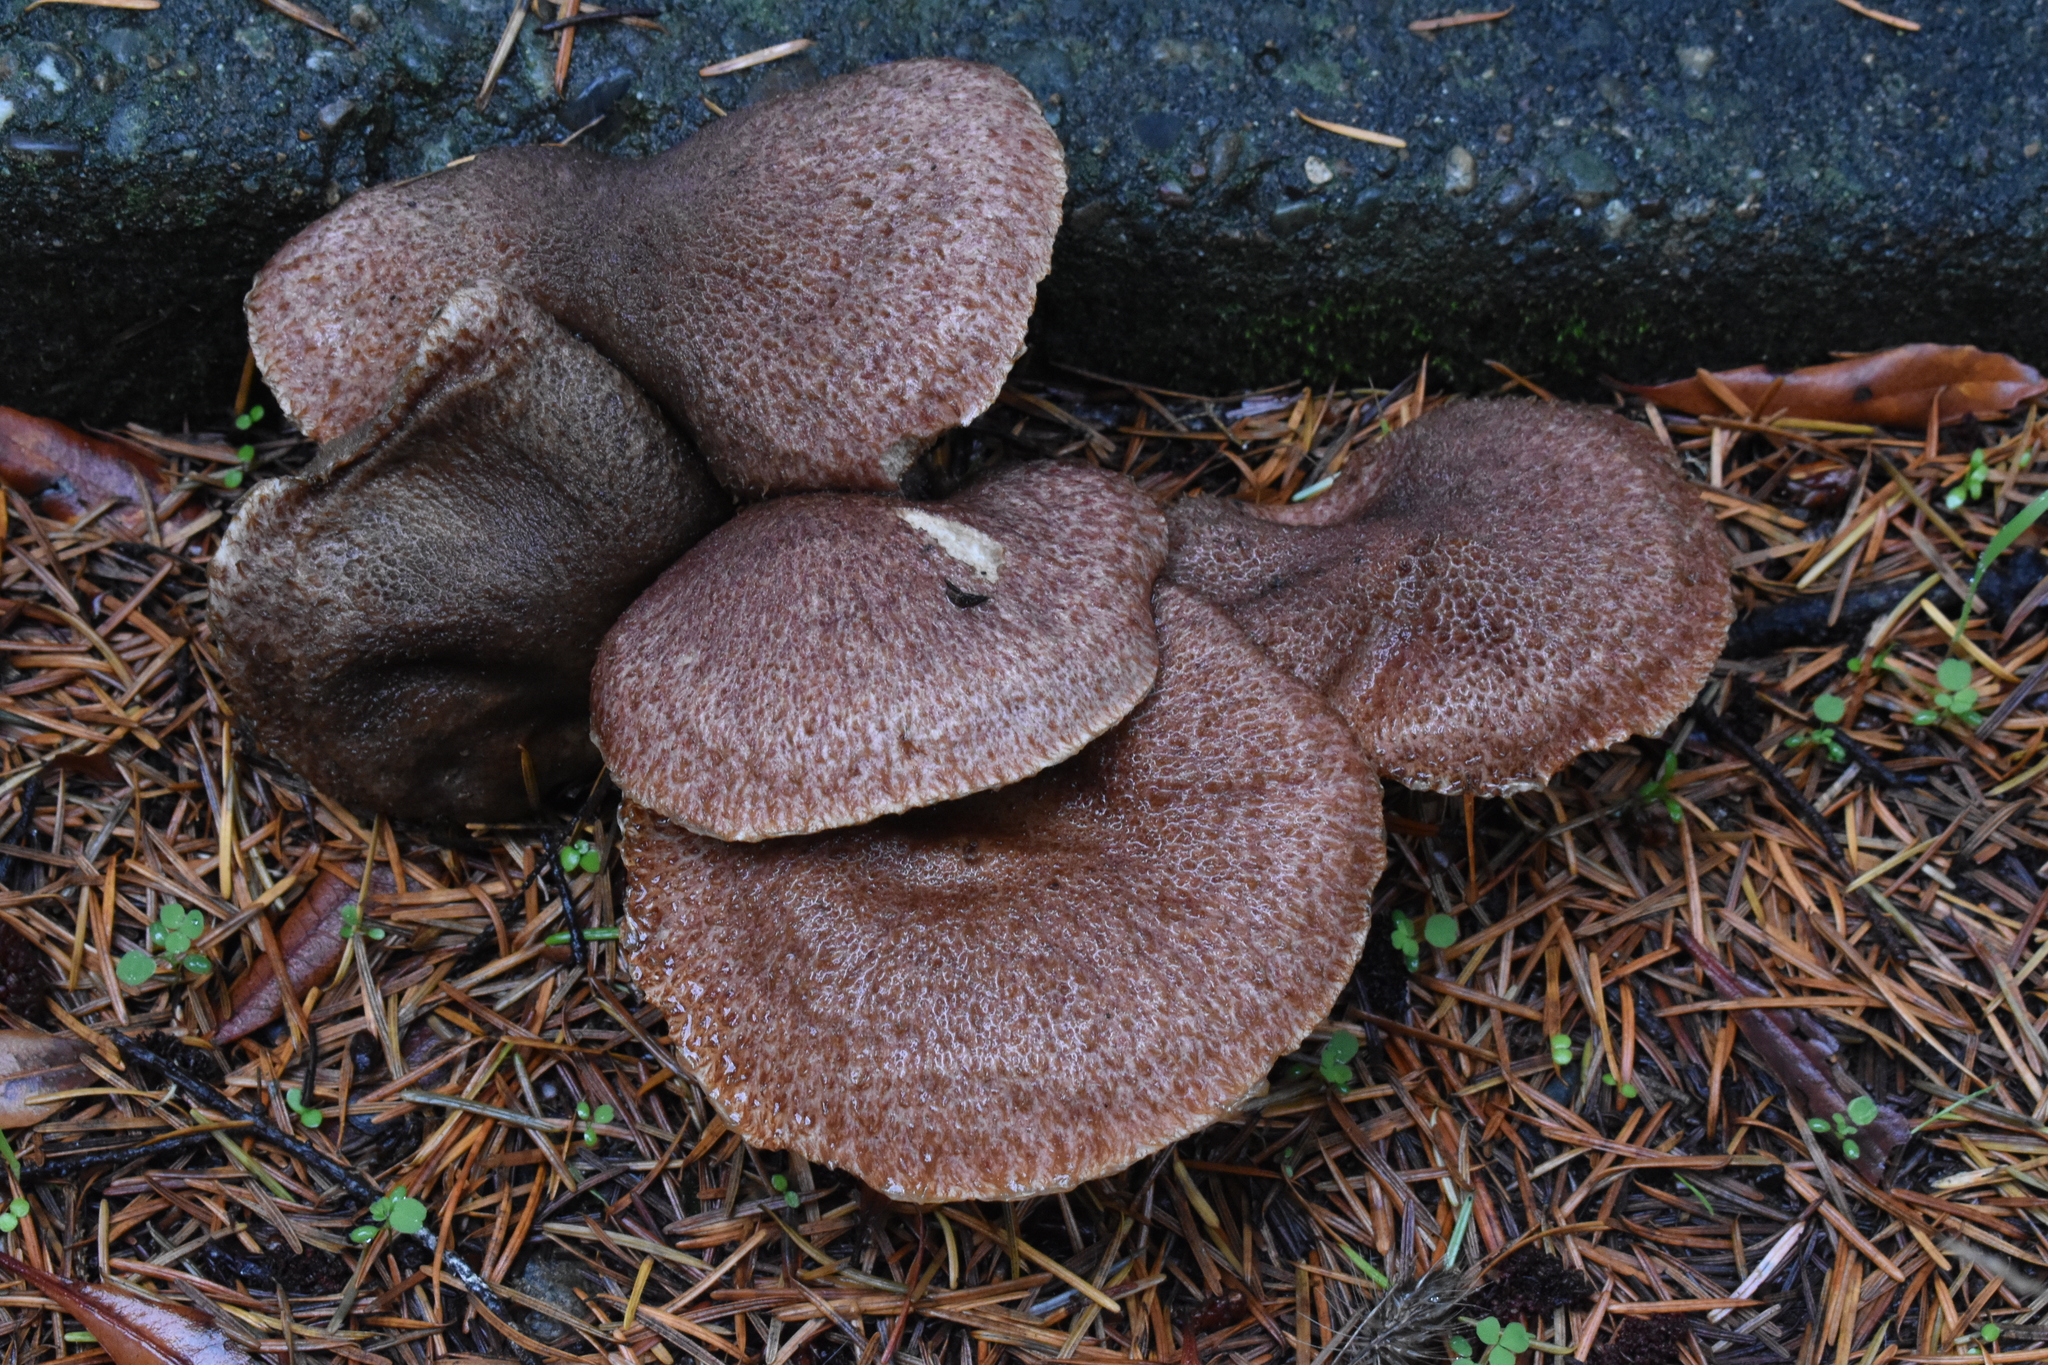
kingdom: Fungi
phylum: Basidiomycota
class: Agaricomycetes
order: Boletales
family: Suillaceae
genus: Suillus
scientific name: Suillus lakei
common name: Western painted suillus
